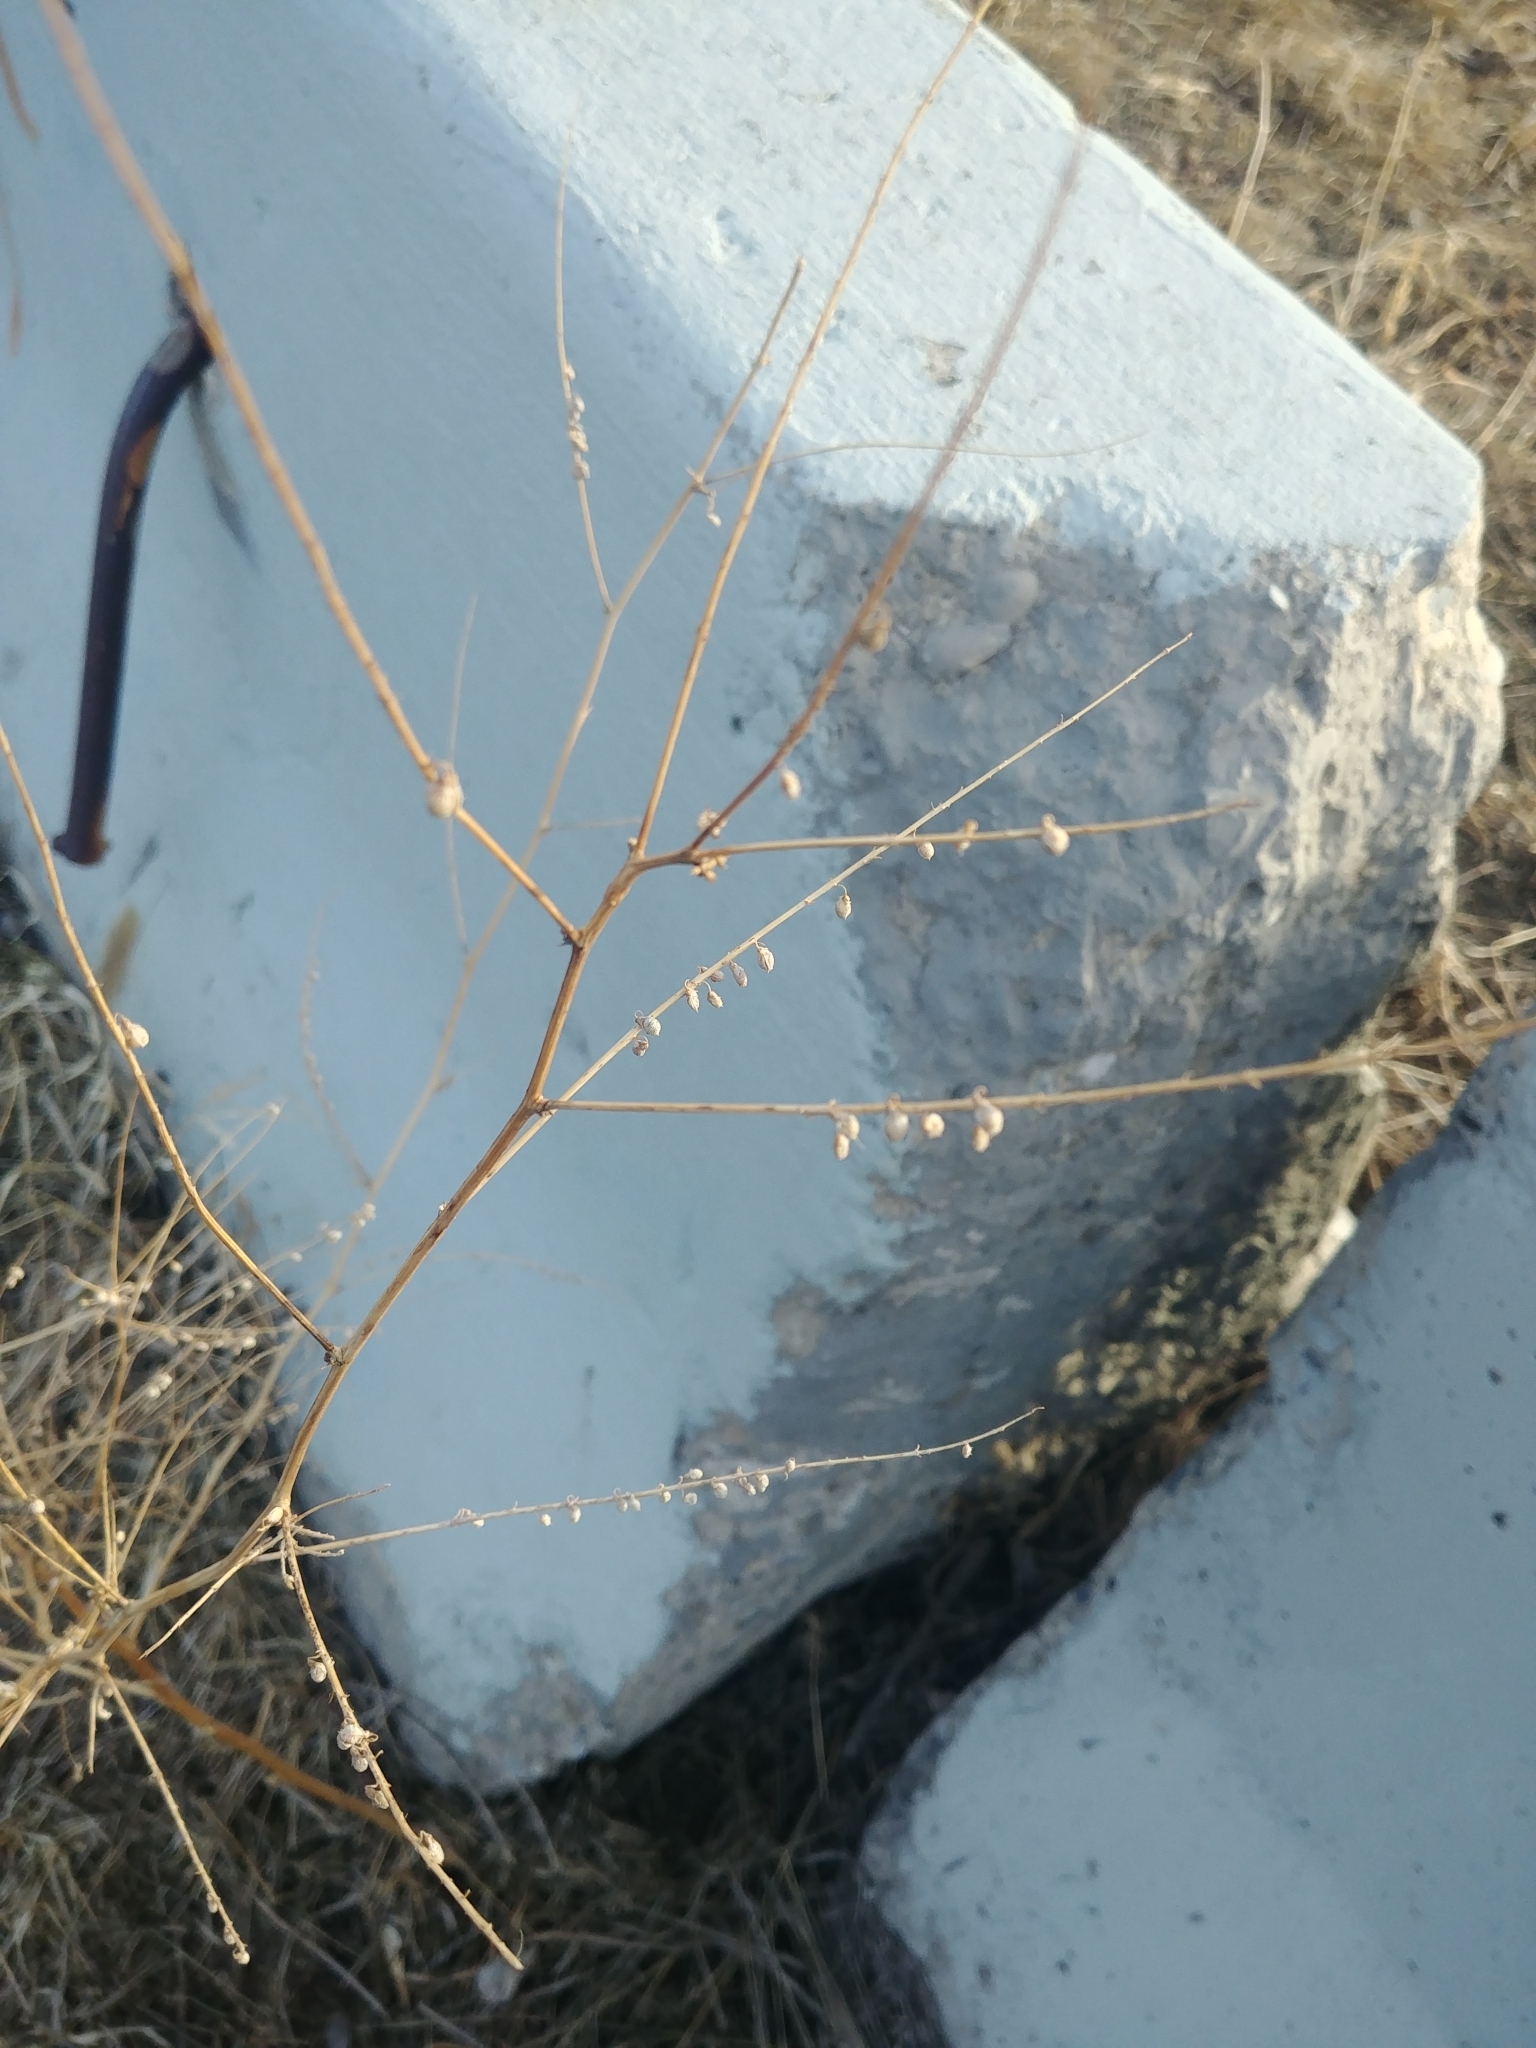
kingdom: Plantae
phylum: Tracheophyta
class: Magnoliopsida
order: Fabales
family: Fabaceae
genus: Melilotus
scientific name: Melilotus
